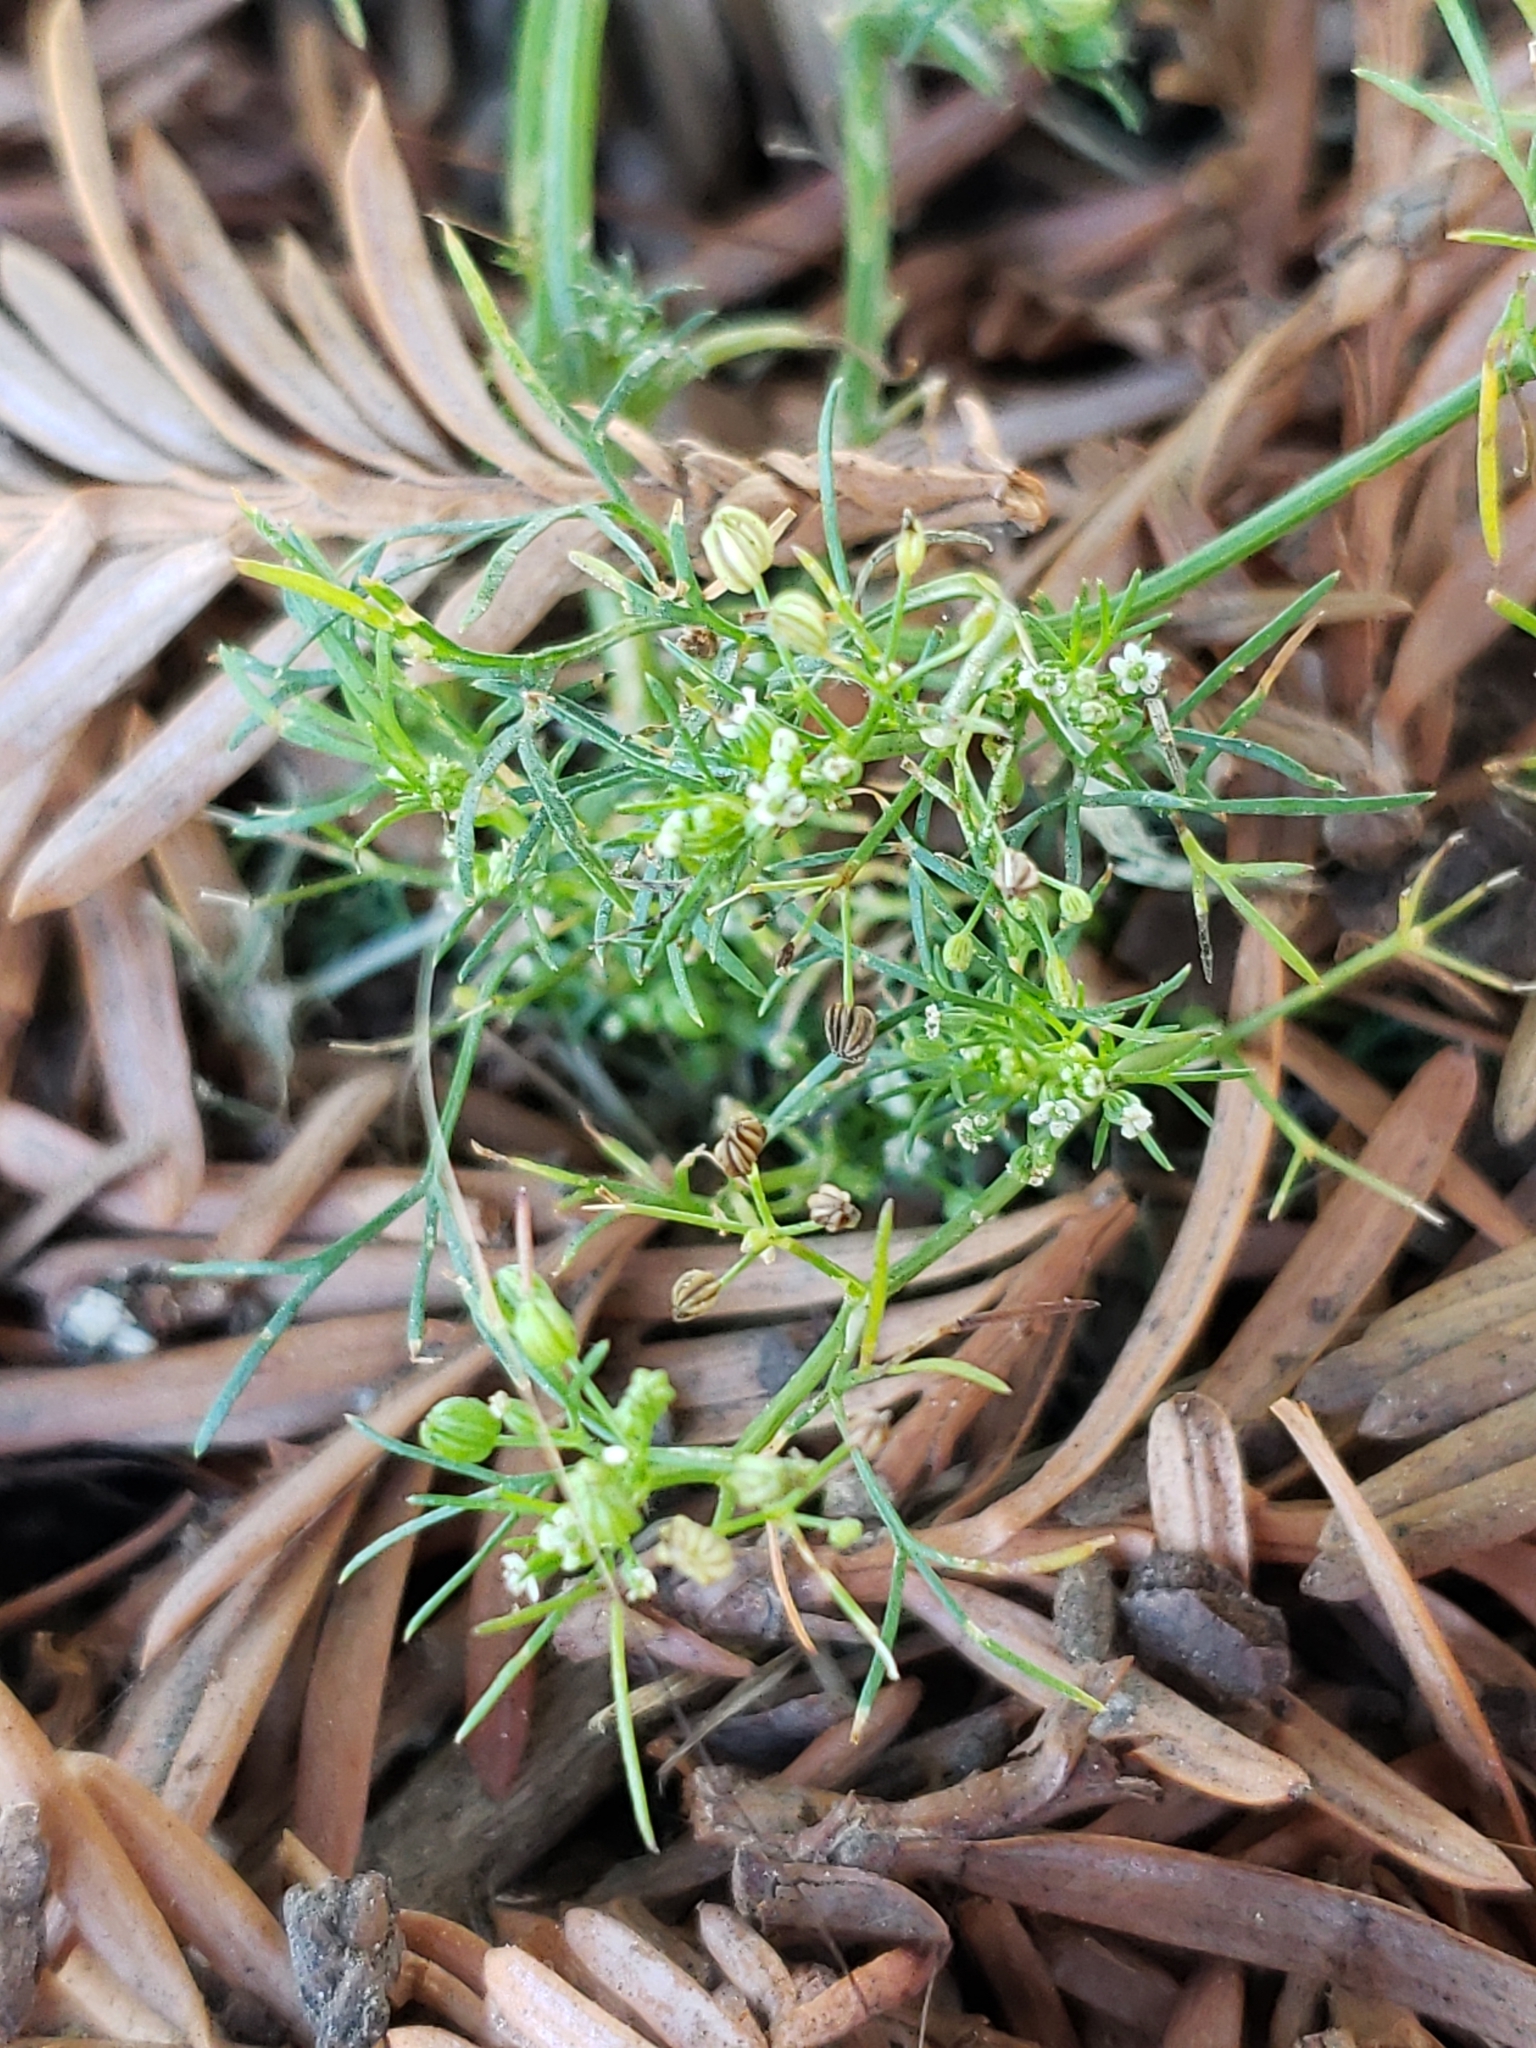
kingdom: Plantae
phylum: Tracheophyta
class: Magnoliopsida
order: Apiales
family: Apiaceae
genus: Cyclospermum
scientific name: Cyclospermum leptophyllum
